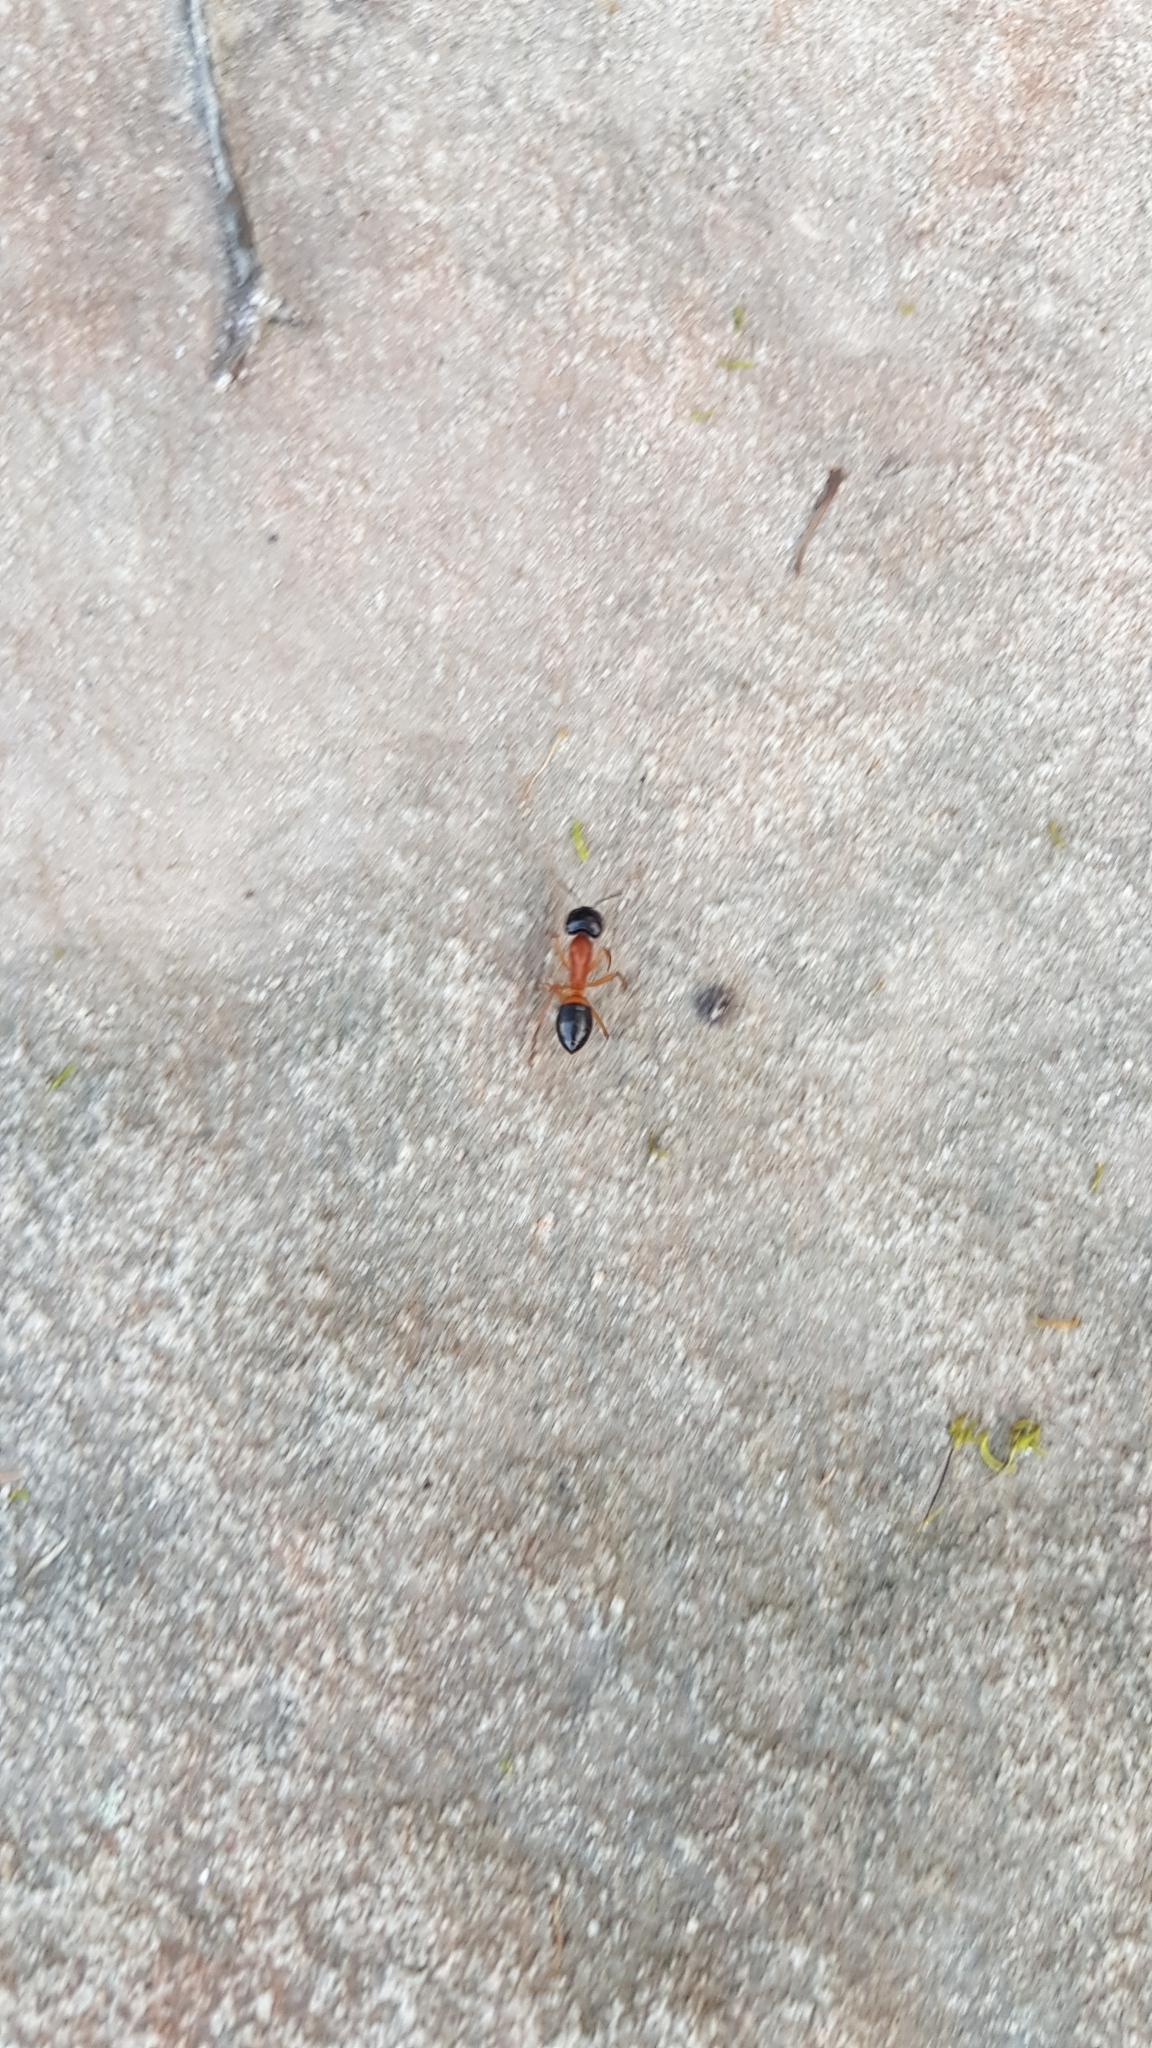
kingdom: Animalia
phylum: Arthropoda
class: Insecta
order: Hymenoptera
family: Formicidae
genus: Camponotus
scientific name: Camponotus consobrinus
